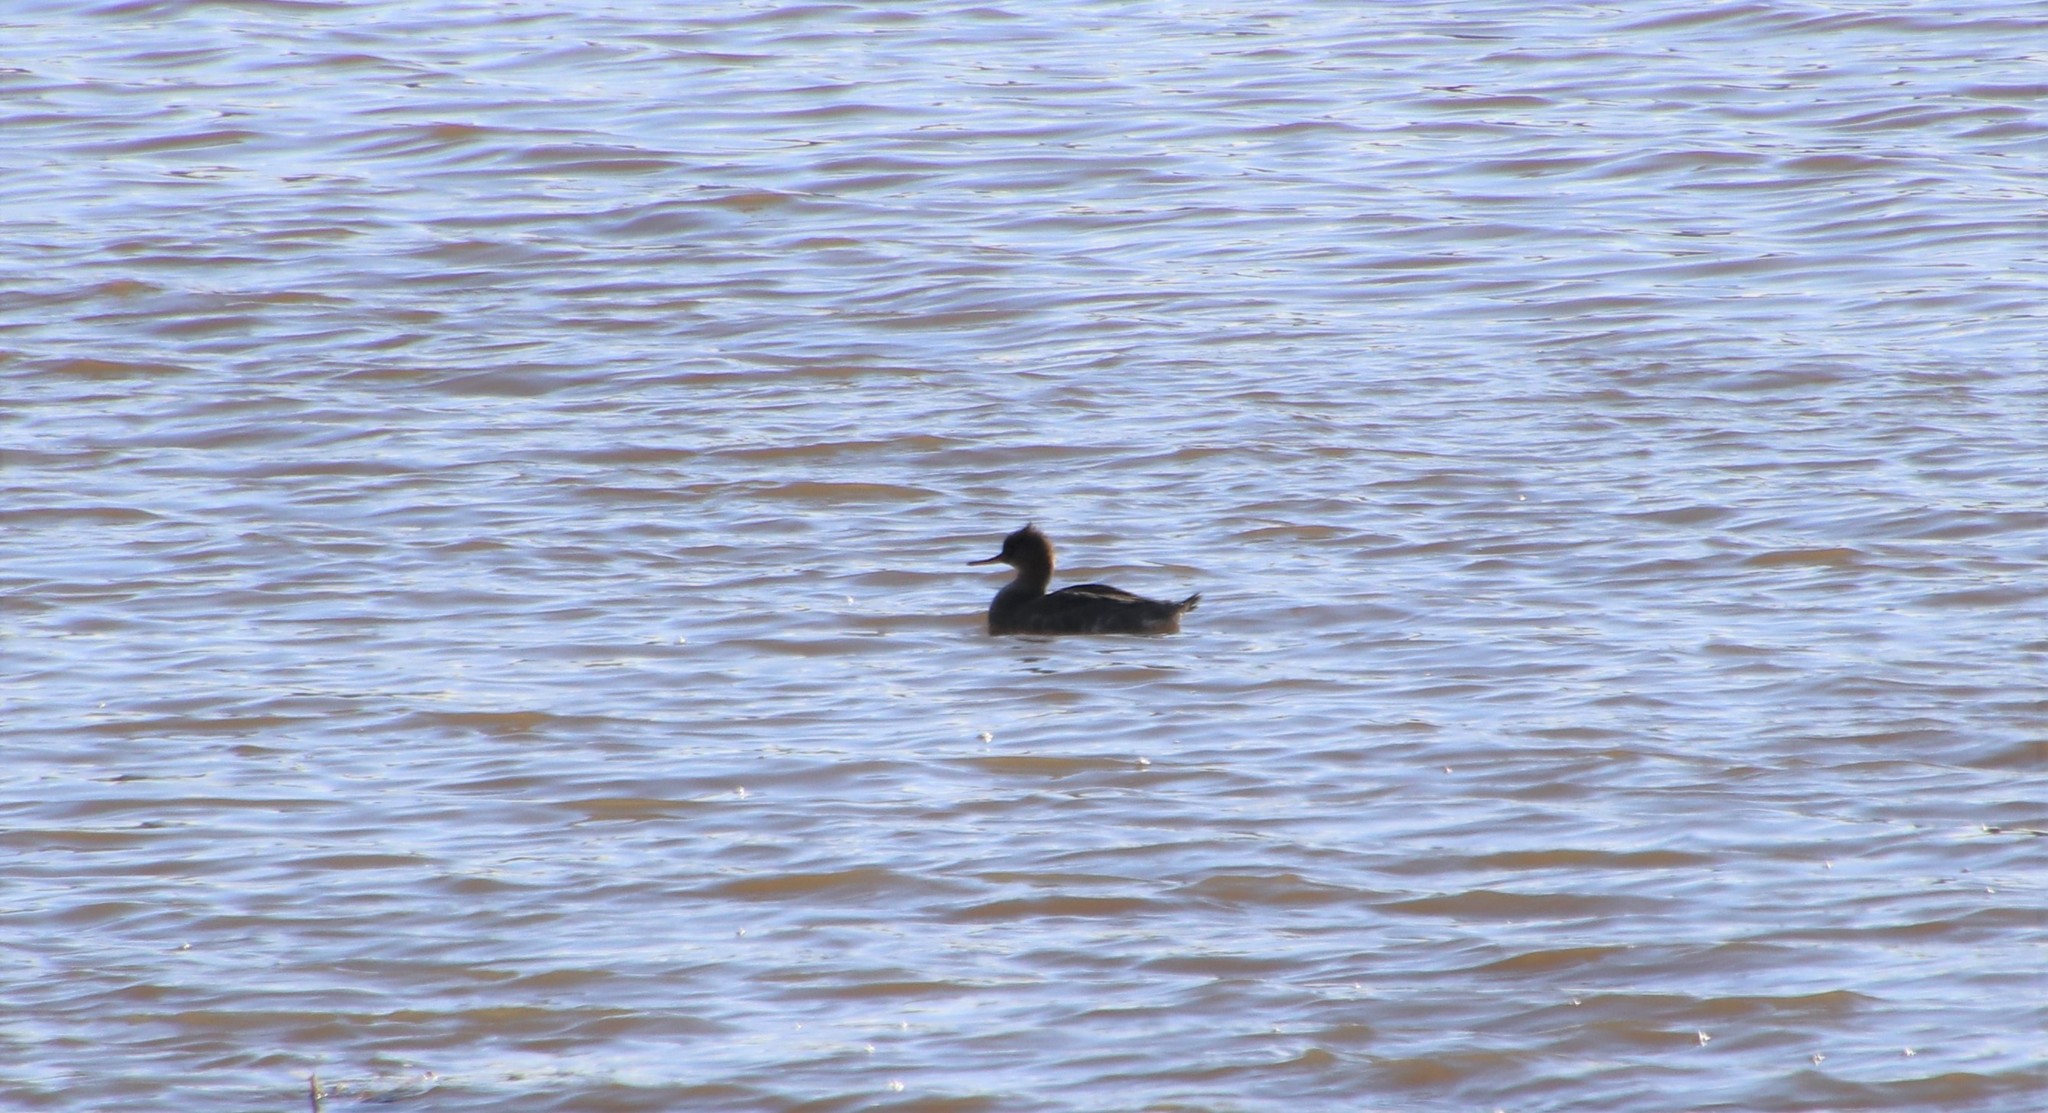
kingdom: Animalia
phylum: Chordata
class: Aves
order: Anseriformes
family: Anatidae
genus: Mergus
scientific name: Mergus serrator
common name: Red-breasted merganser
